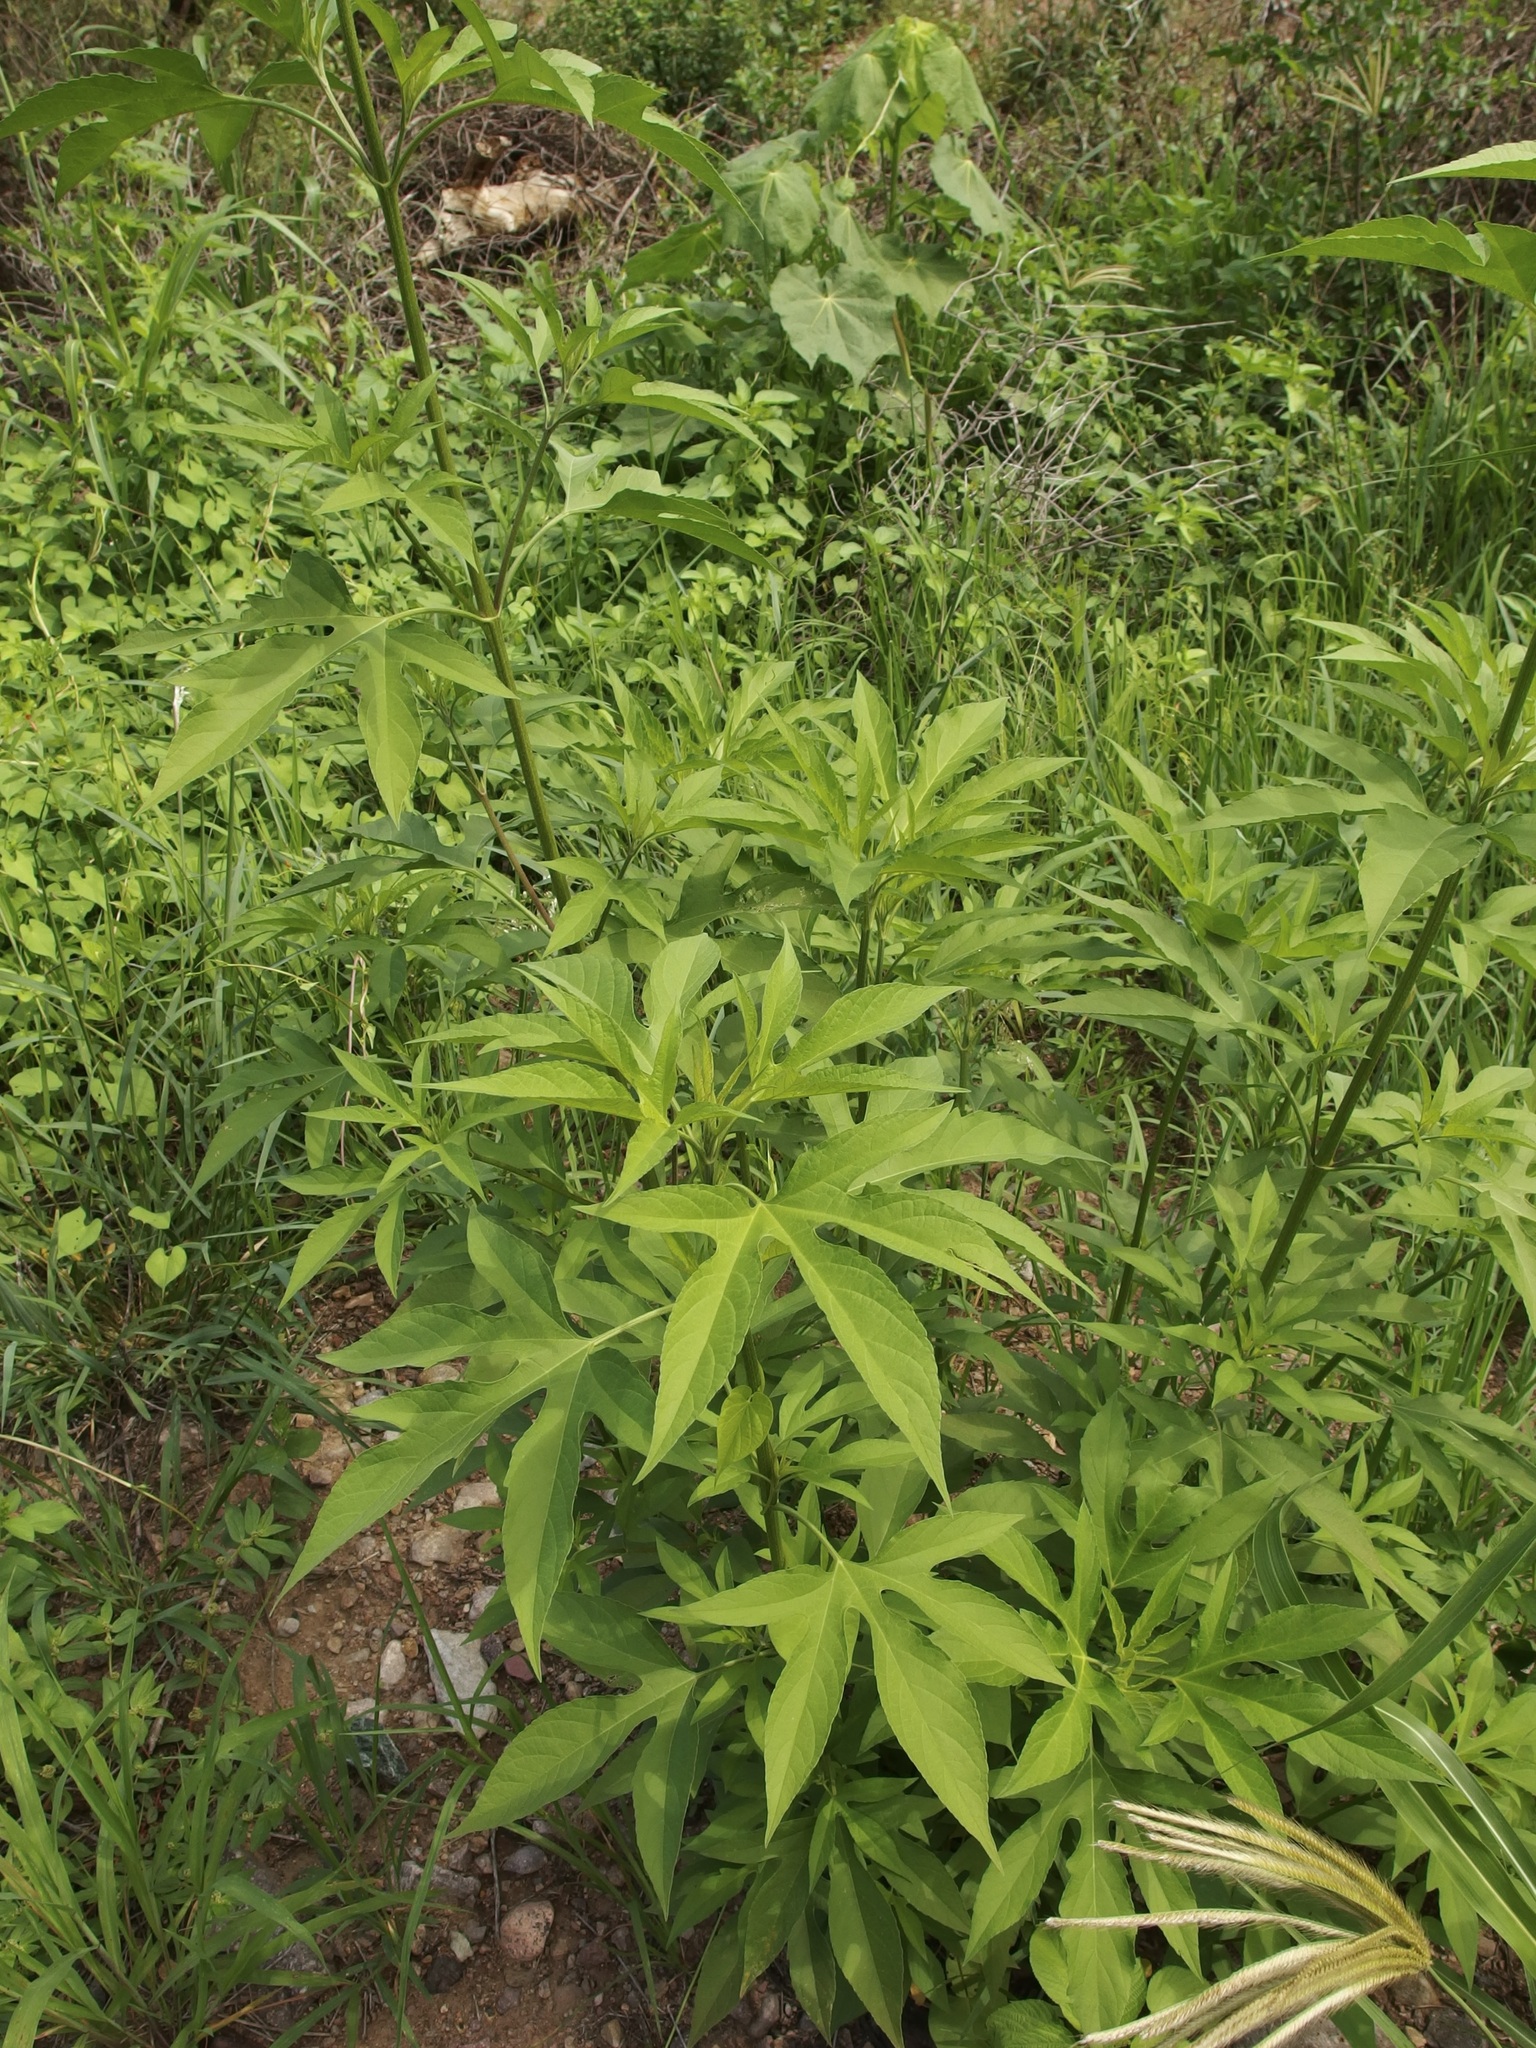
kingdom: Plantae
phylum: Tracheophyta
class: Magnoliopsida
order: Asterales
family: Asteraceae
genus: Ambrosia
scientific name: Ambrosia trifida
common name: Giant ragweed
